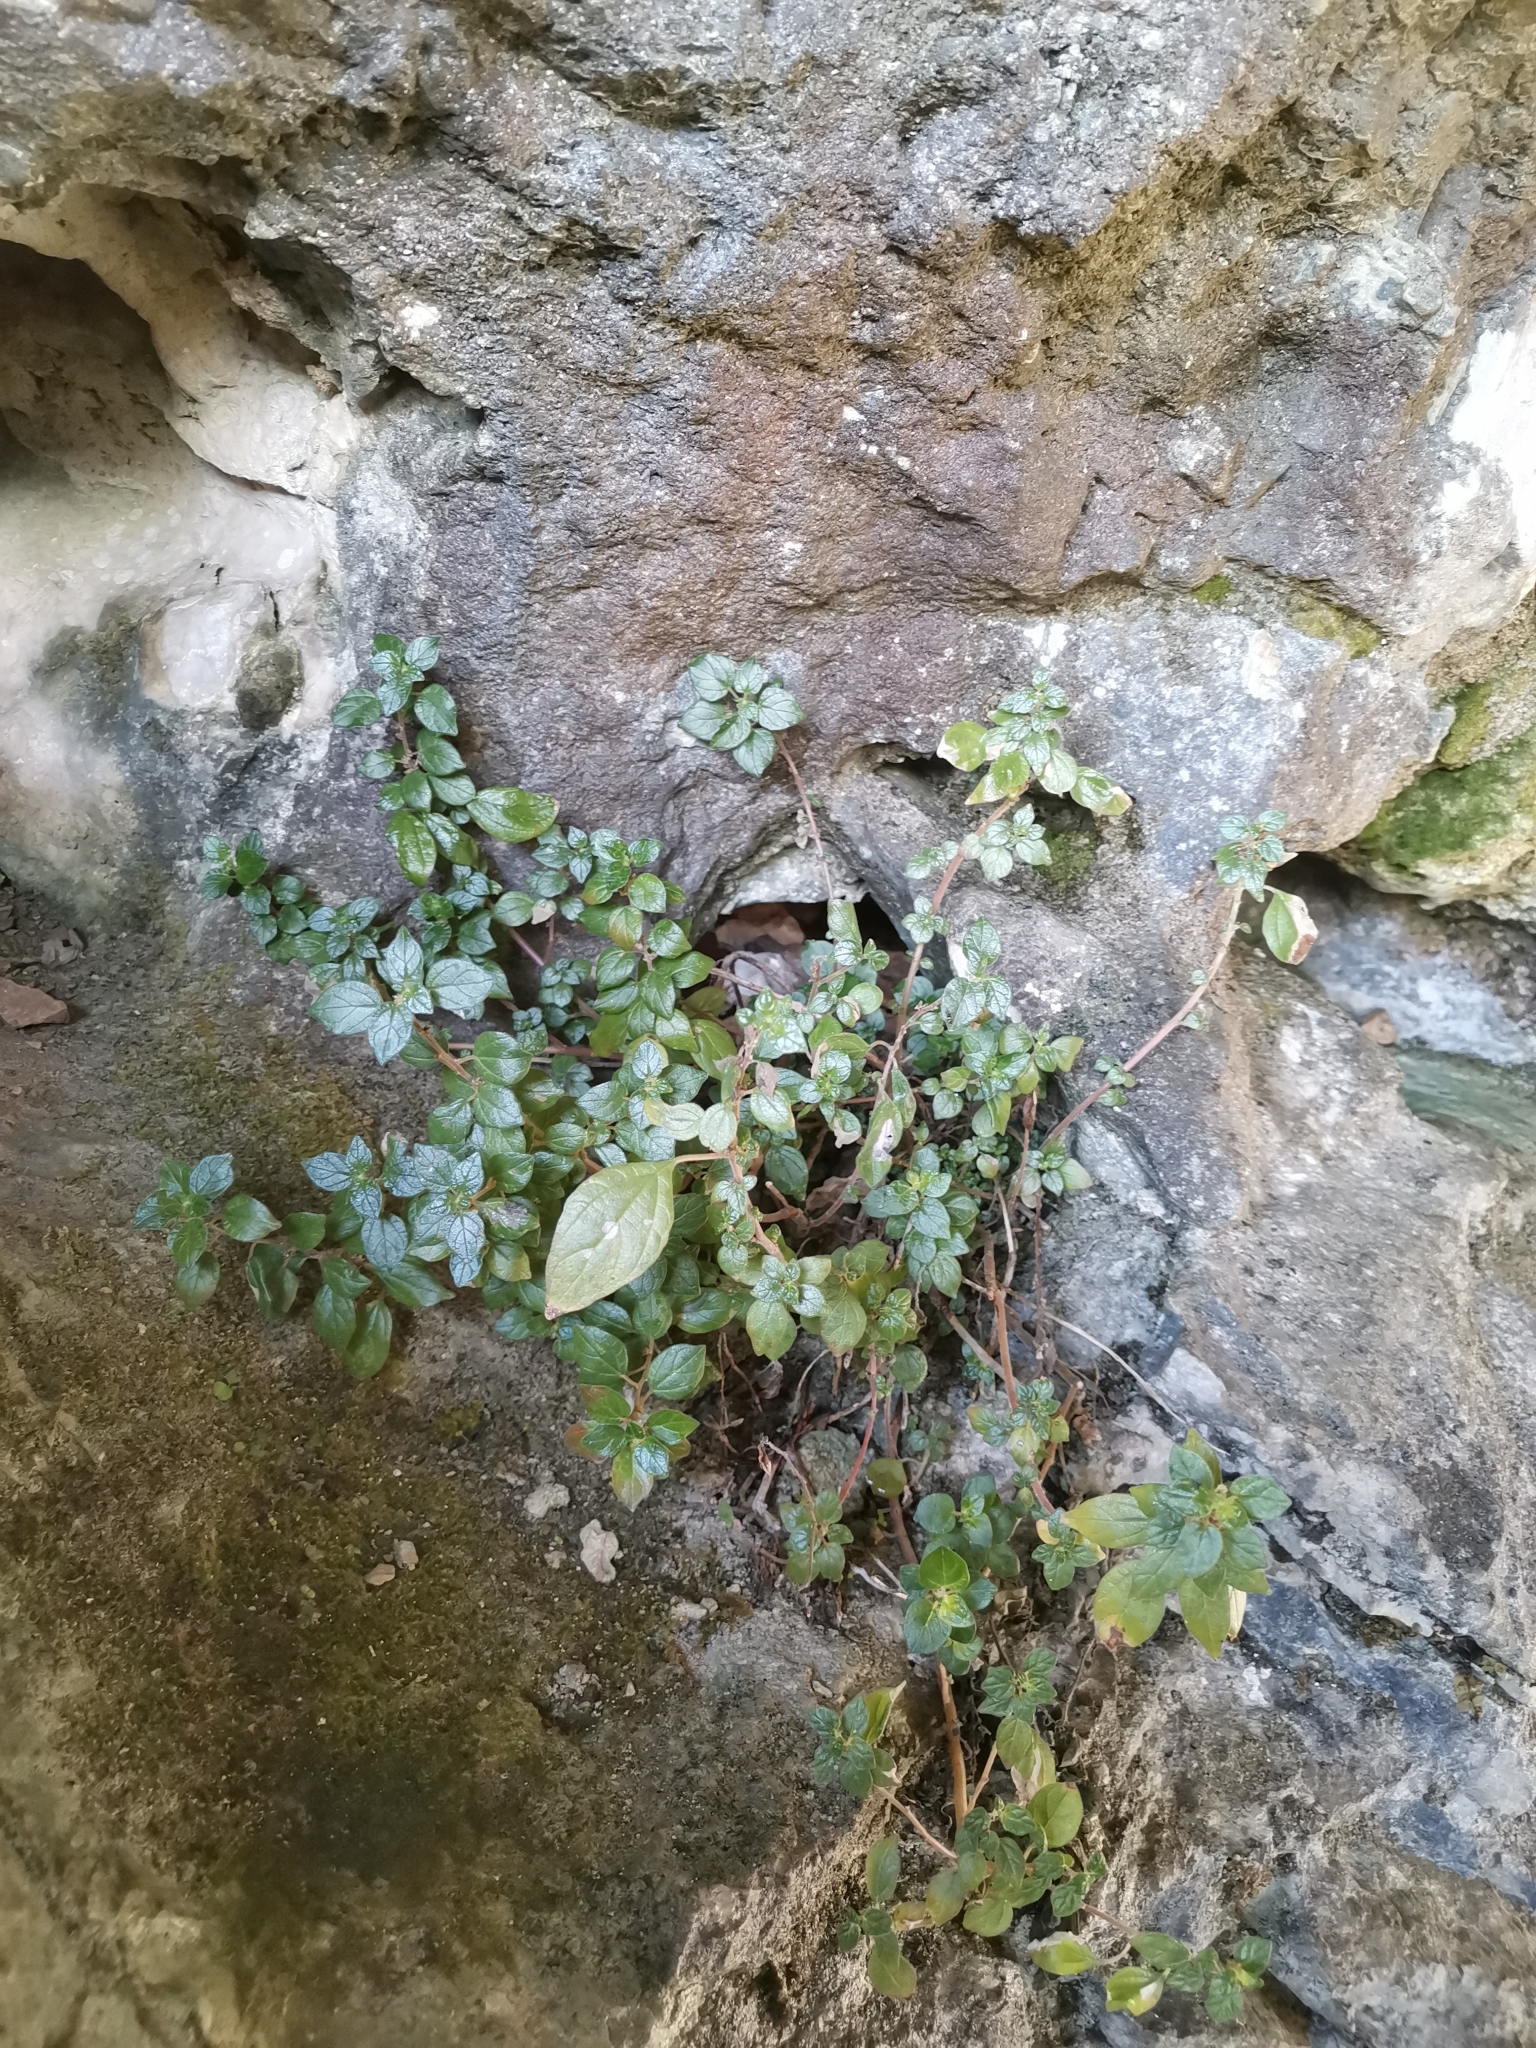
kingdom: Plantae
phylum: Tracheophyta
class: Magnoliopsida
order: Rosales
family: Urticaceae
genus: Parietaria
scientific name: Parietaria judaica
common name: Pellitory-of-the-wall
